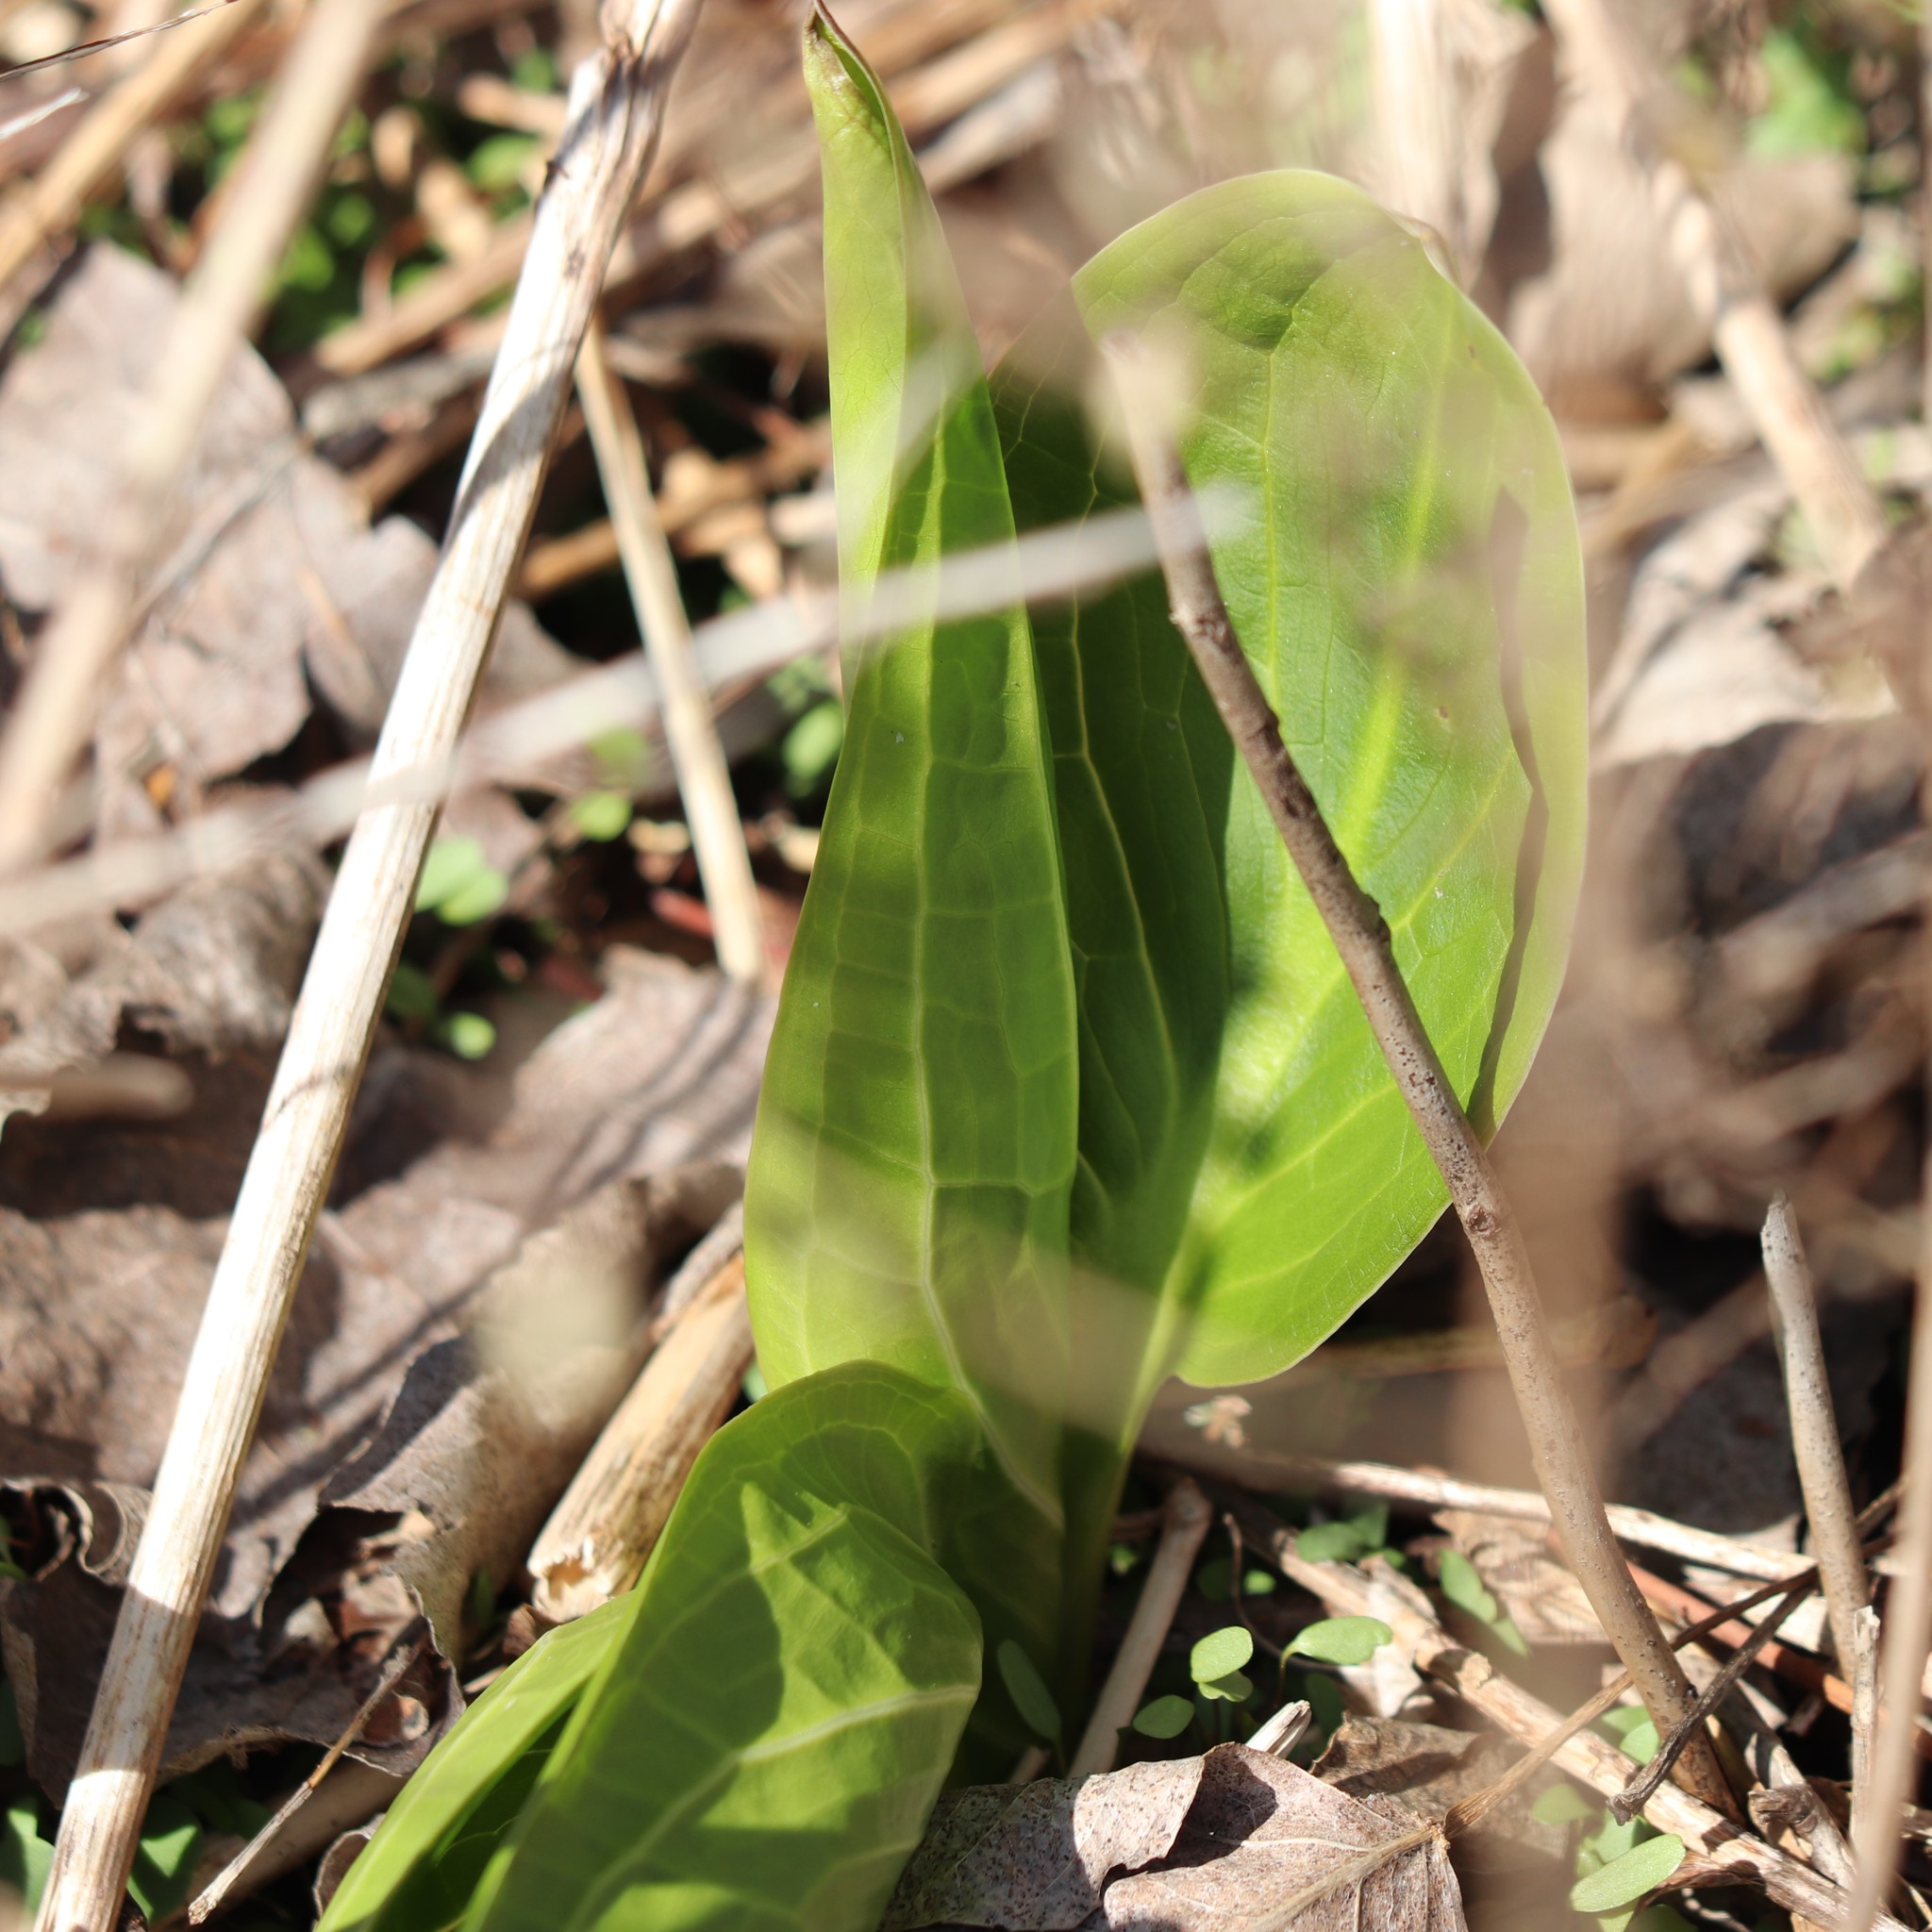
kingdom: Plantae
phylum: Tracheophyta
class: Liliopsida
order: Alismatales
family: Araceae
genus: Symplocarpus
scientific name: Symplocarpus foetidus
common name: Eastern skunk cabbage
